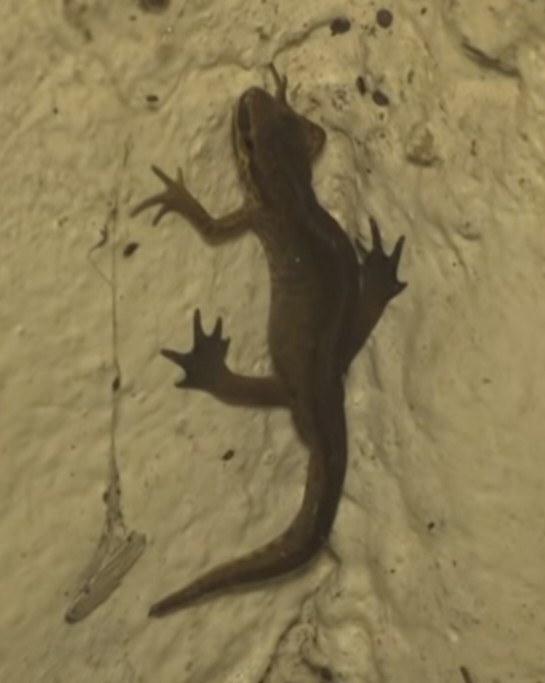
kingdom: Animalia
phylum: Chordata
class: Amphibia
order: Caudata
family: Salamandridae
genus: Lissotriton
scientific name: Lissotriton helveticus
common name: Palmate newt
